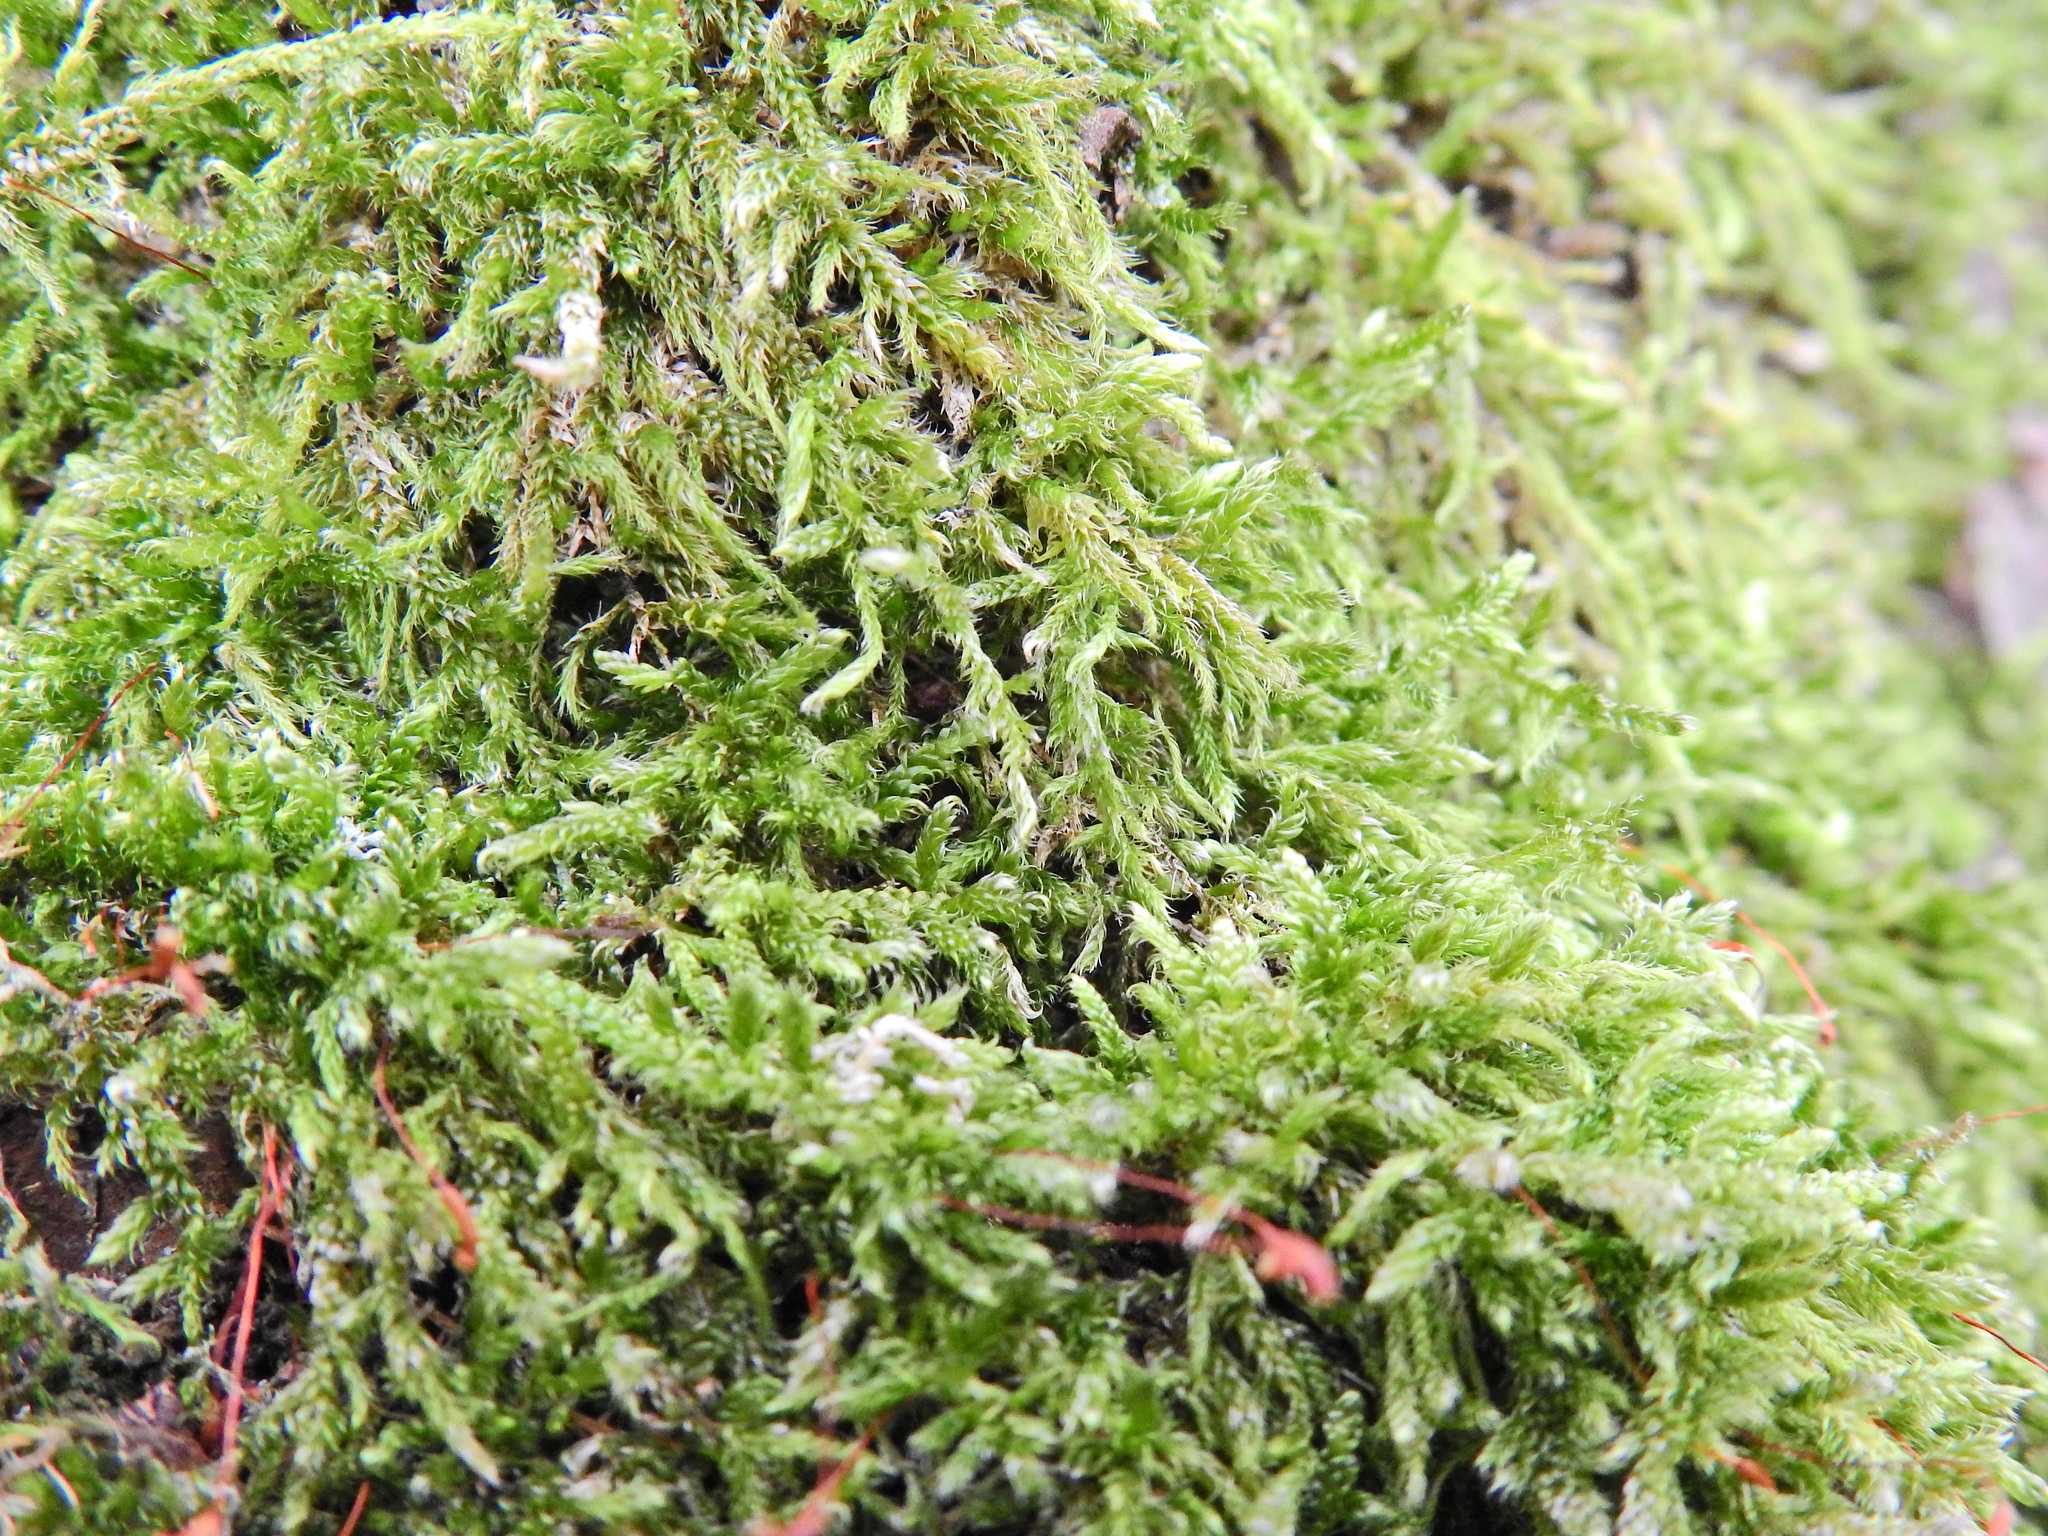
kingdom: Plantae
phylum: Bryophyta
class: Bryopsida
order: Hypnales
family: Hypnaceae
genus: Hypnum
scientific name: Hypnum cupressiforme
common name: Cypress-leaved plait-moss
